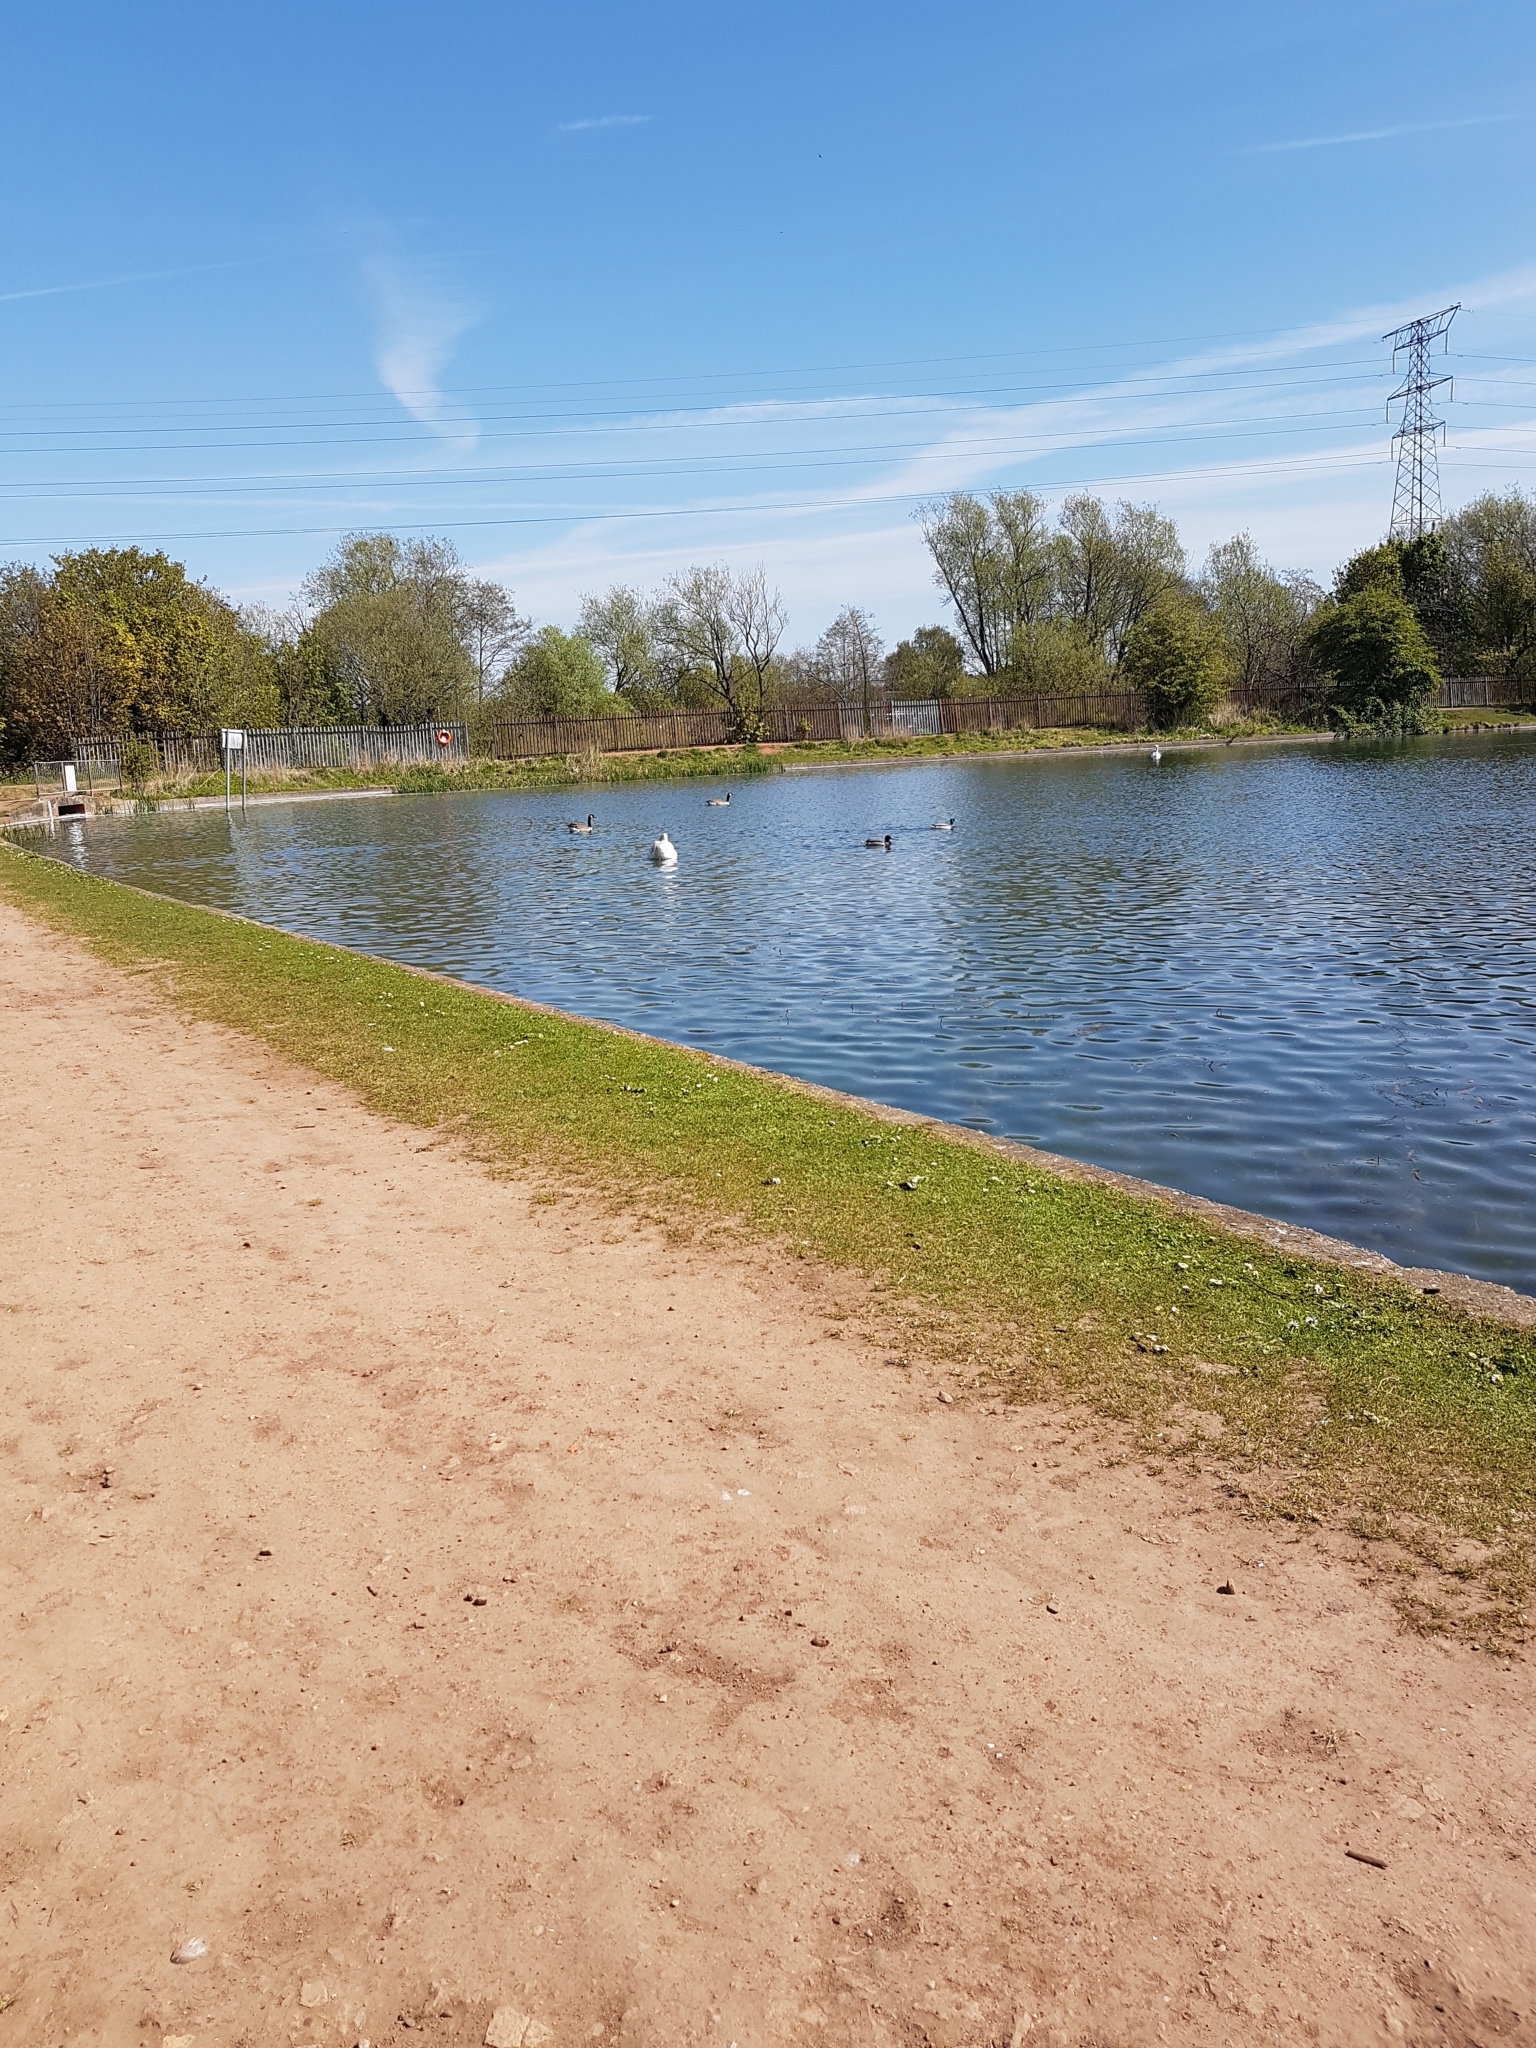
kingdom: Animalia
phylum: Chordata
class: Aves
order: Anseriformes
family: Anatidae
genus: Cygnus
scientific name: Cygnus olor
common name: Mute swan
